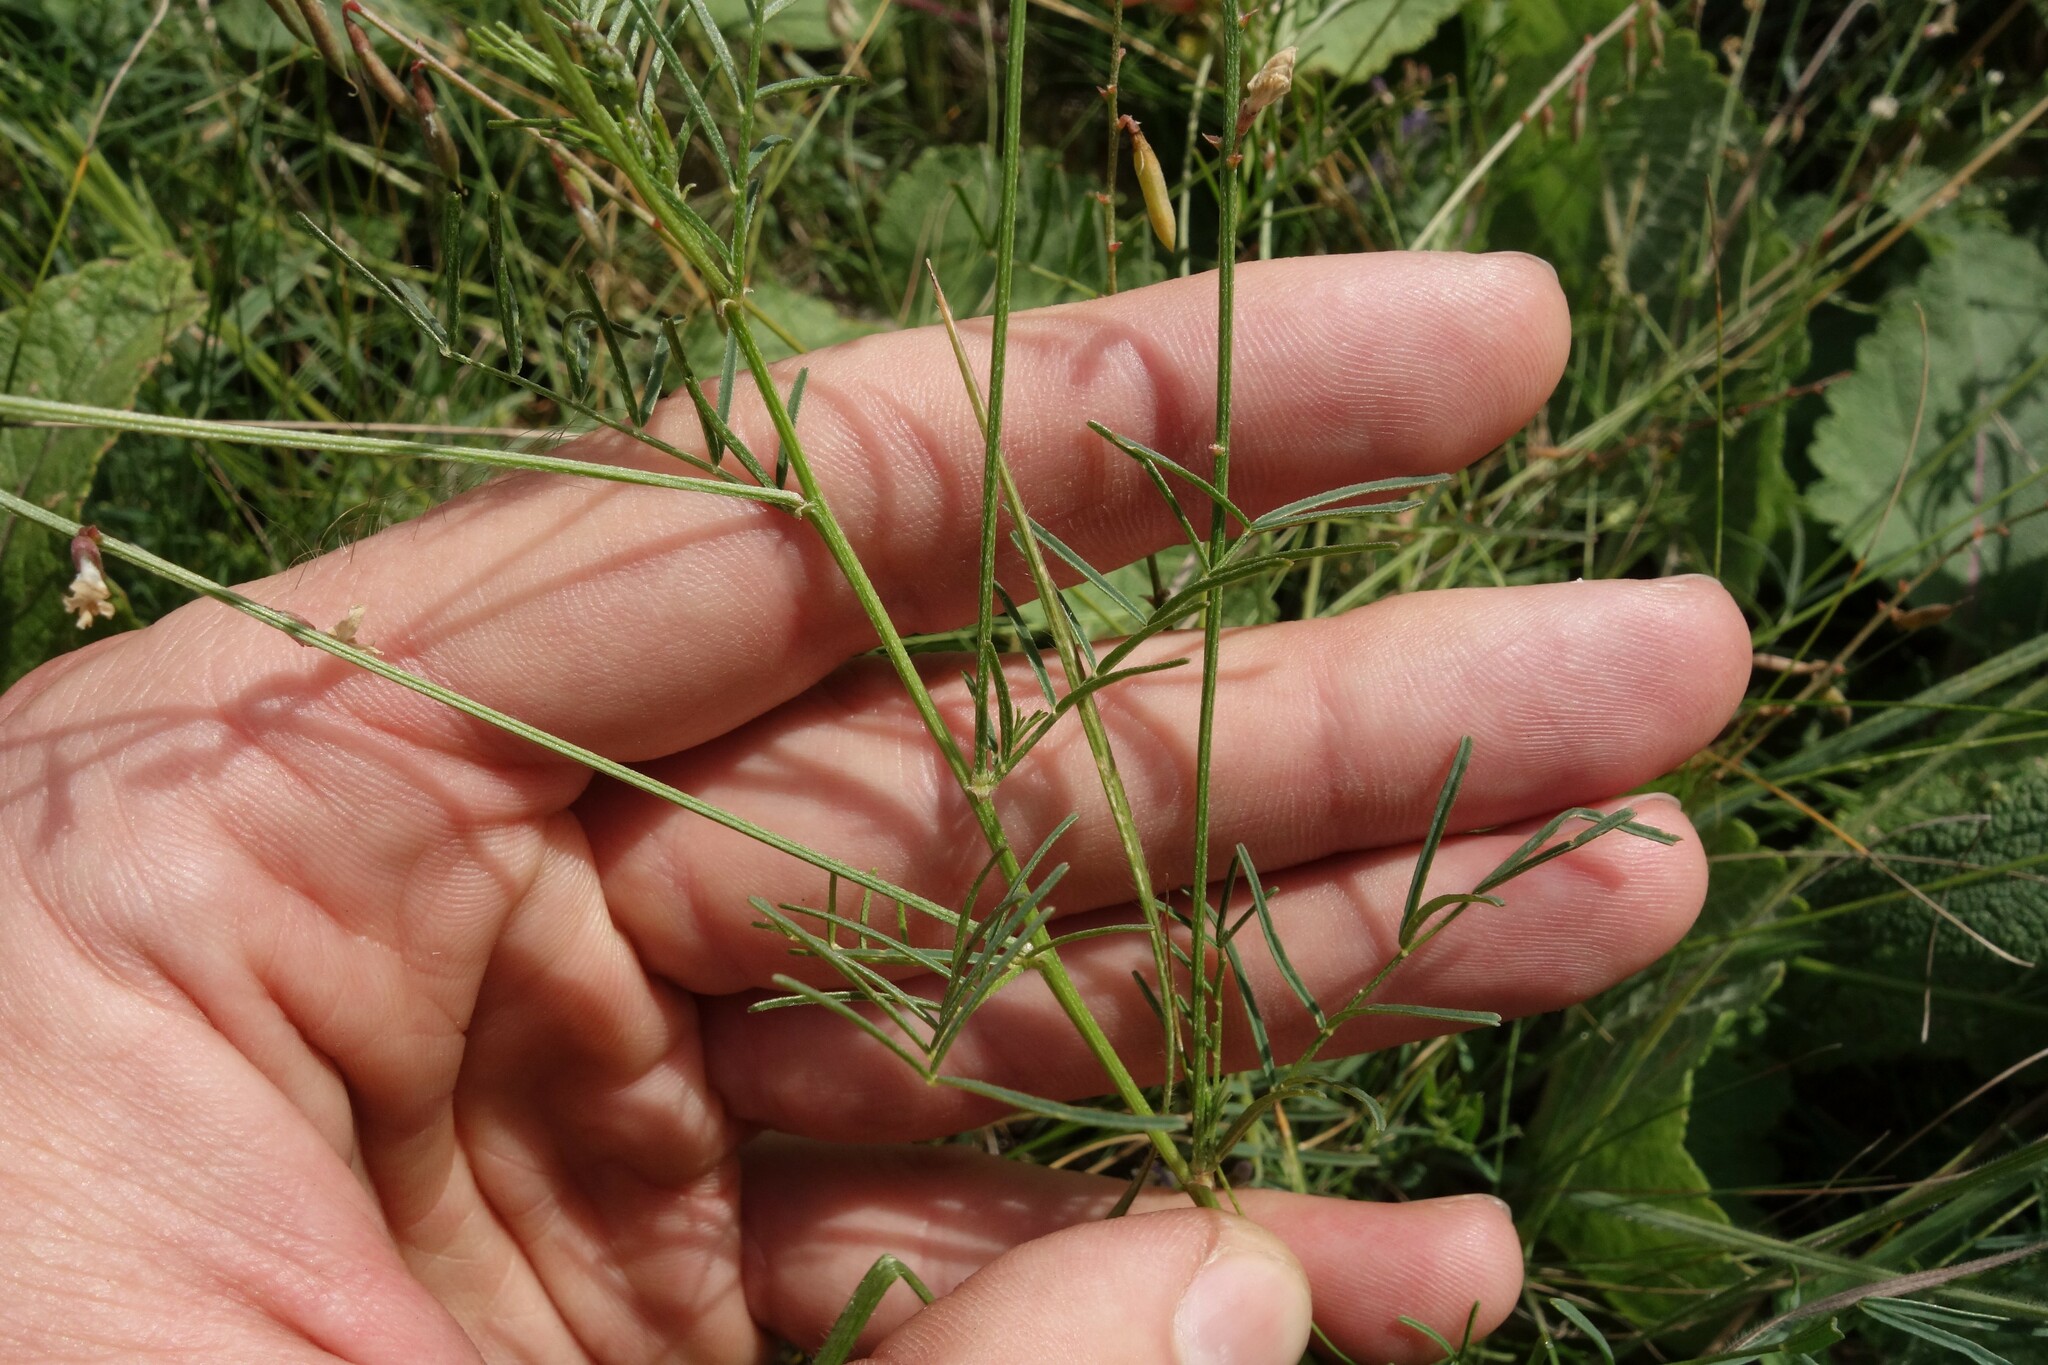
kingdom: Plantae
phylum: Tracheophyta
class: Magnoliopsida
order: Fabales
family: Fabaceae
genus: Astragalus
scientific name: Astragalus austriacus
